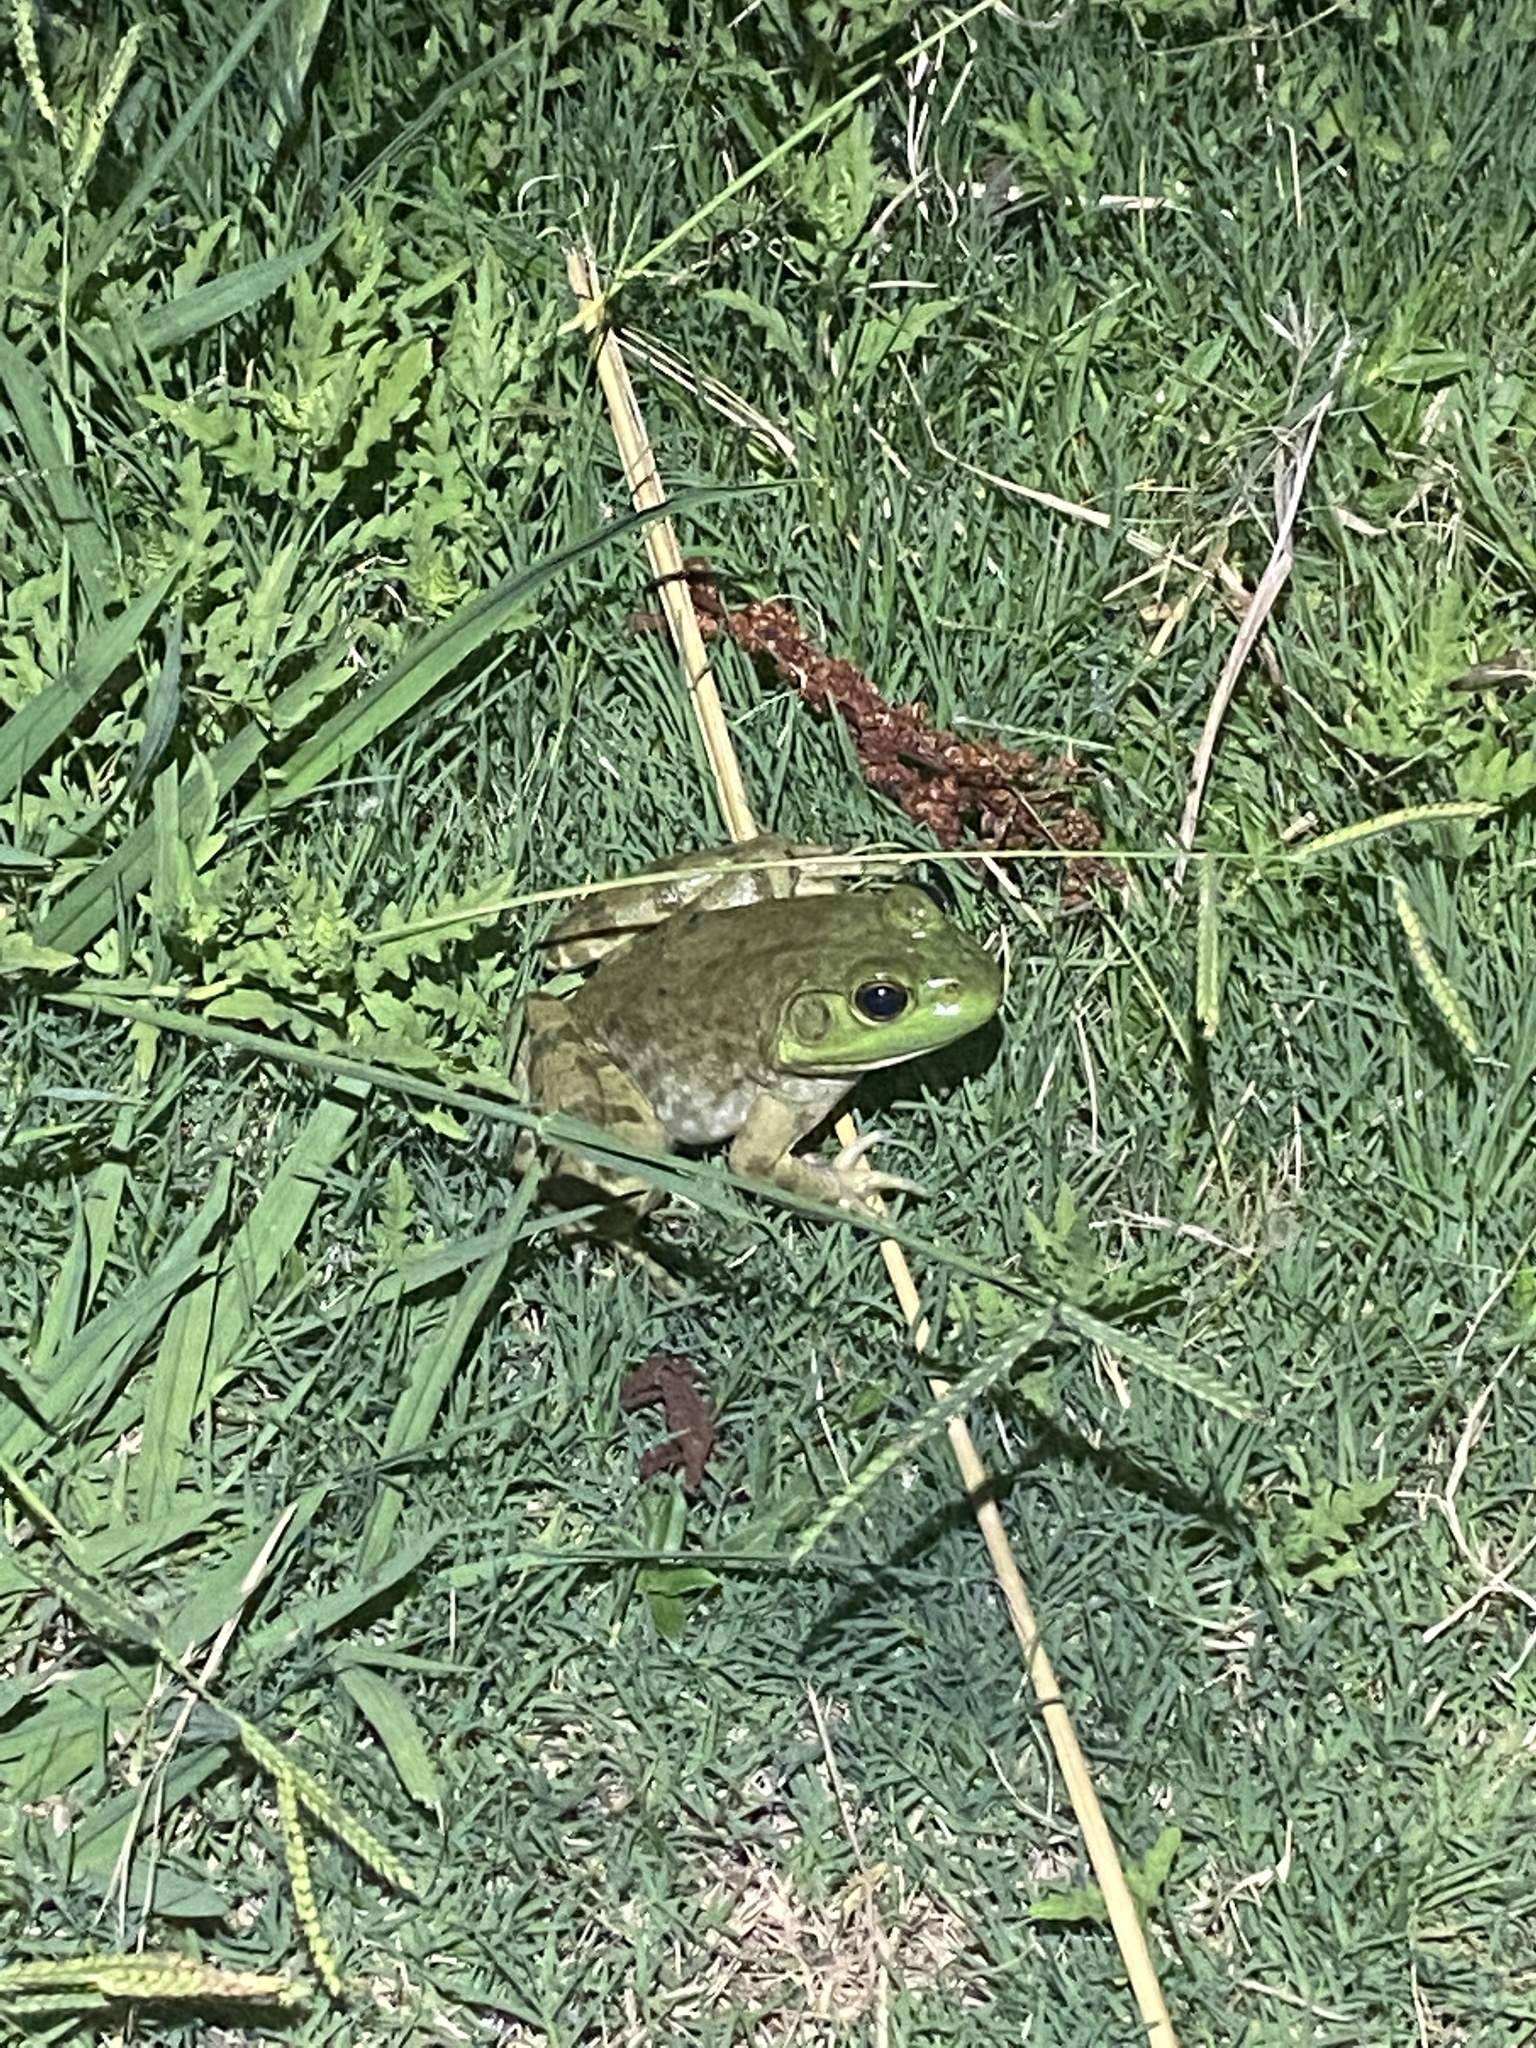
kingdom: Animalia
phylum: Chordata
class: Amphibia
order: Anura
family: Ranidae
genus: Lithobates
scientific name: Lithobates catesbeianus
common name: American bullfrog
